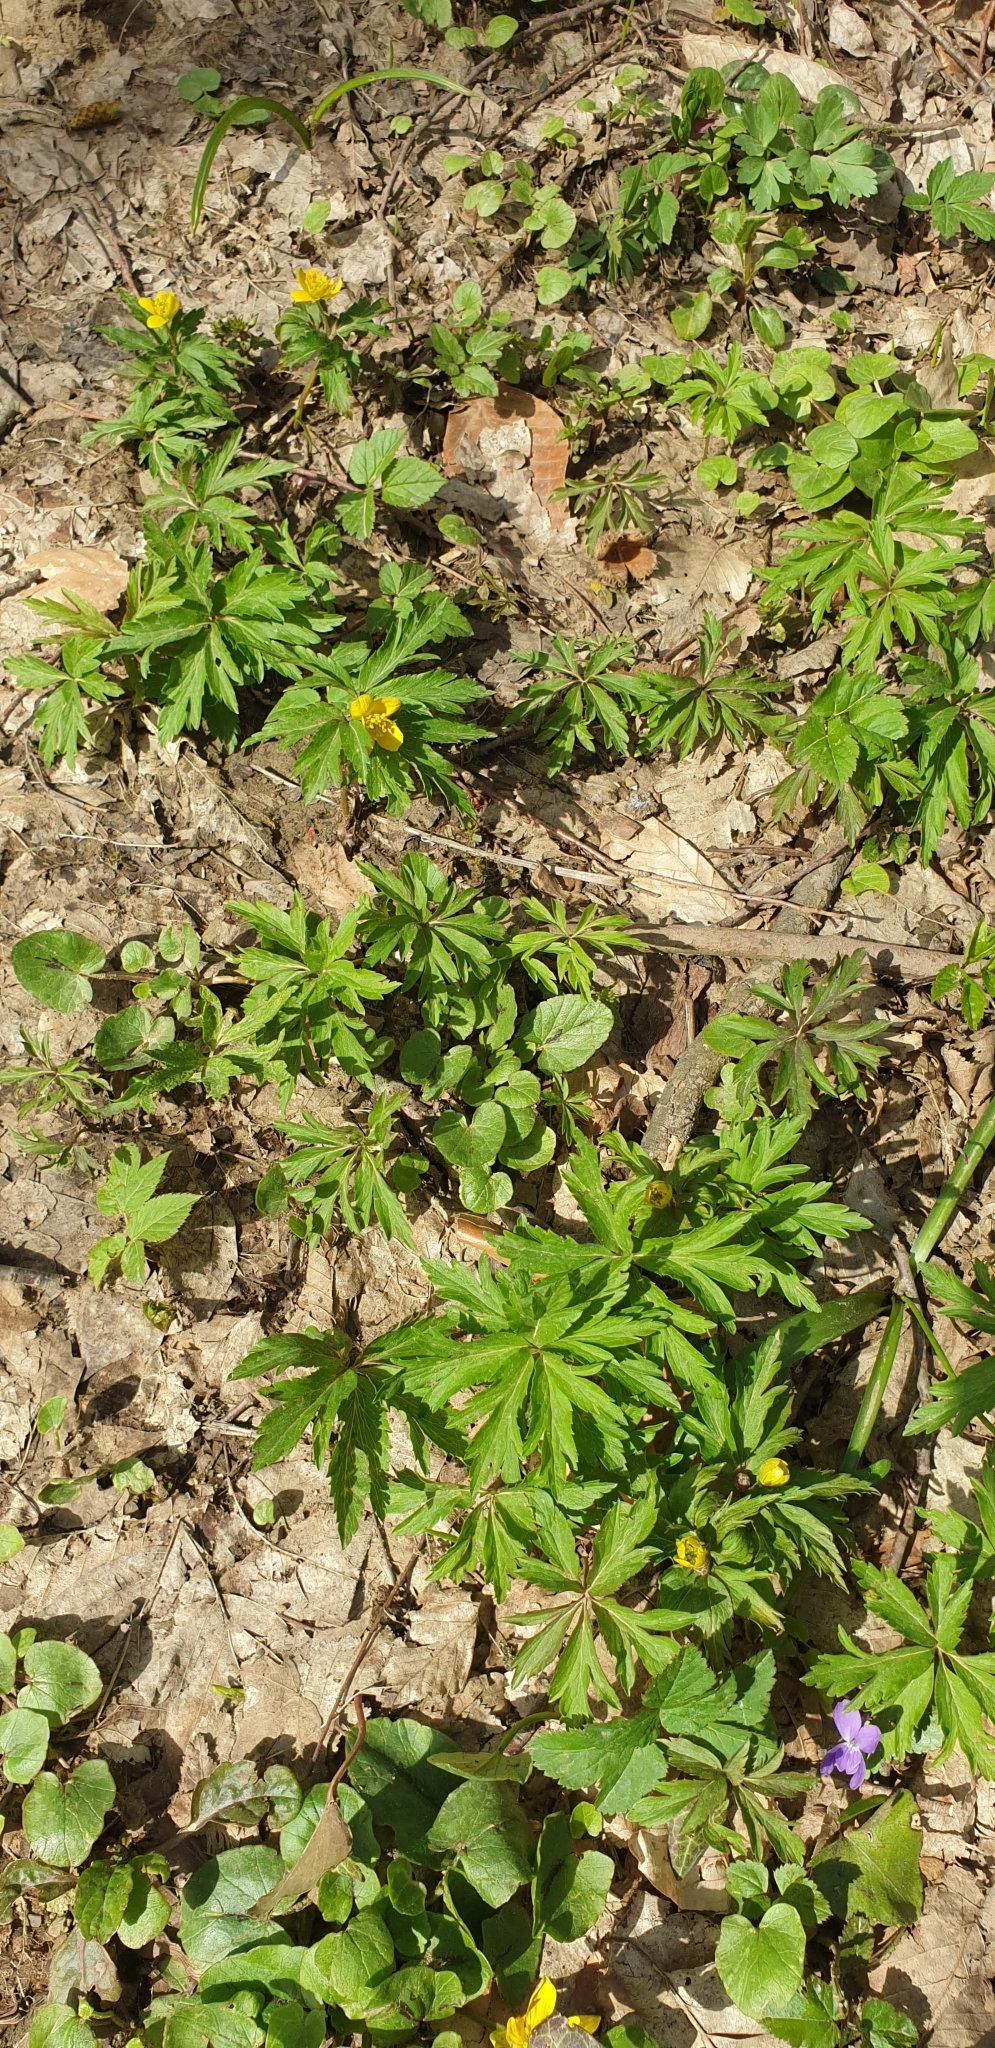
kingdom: Plantae
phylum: Tracheophyta
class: Magnoliopsida
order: Ranunculales
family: Ranunculaceae
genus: Anemone
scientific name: Anemone ranunculoides
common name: Yellow anemone
